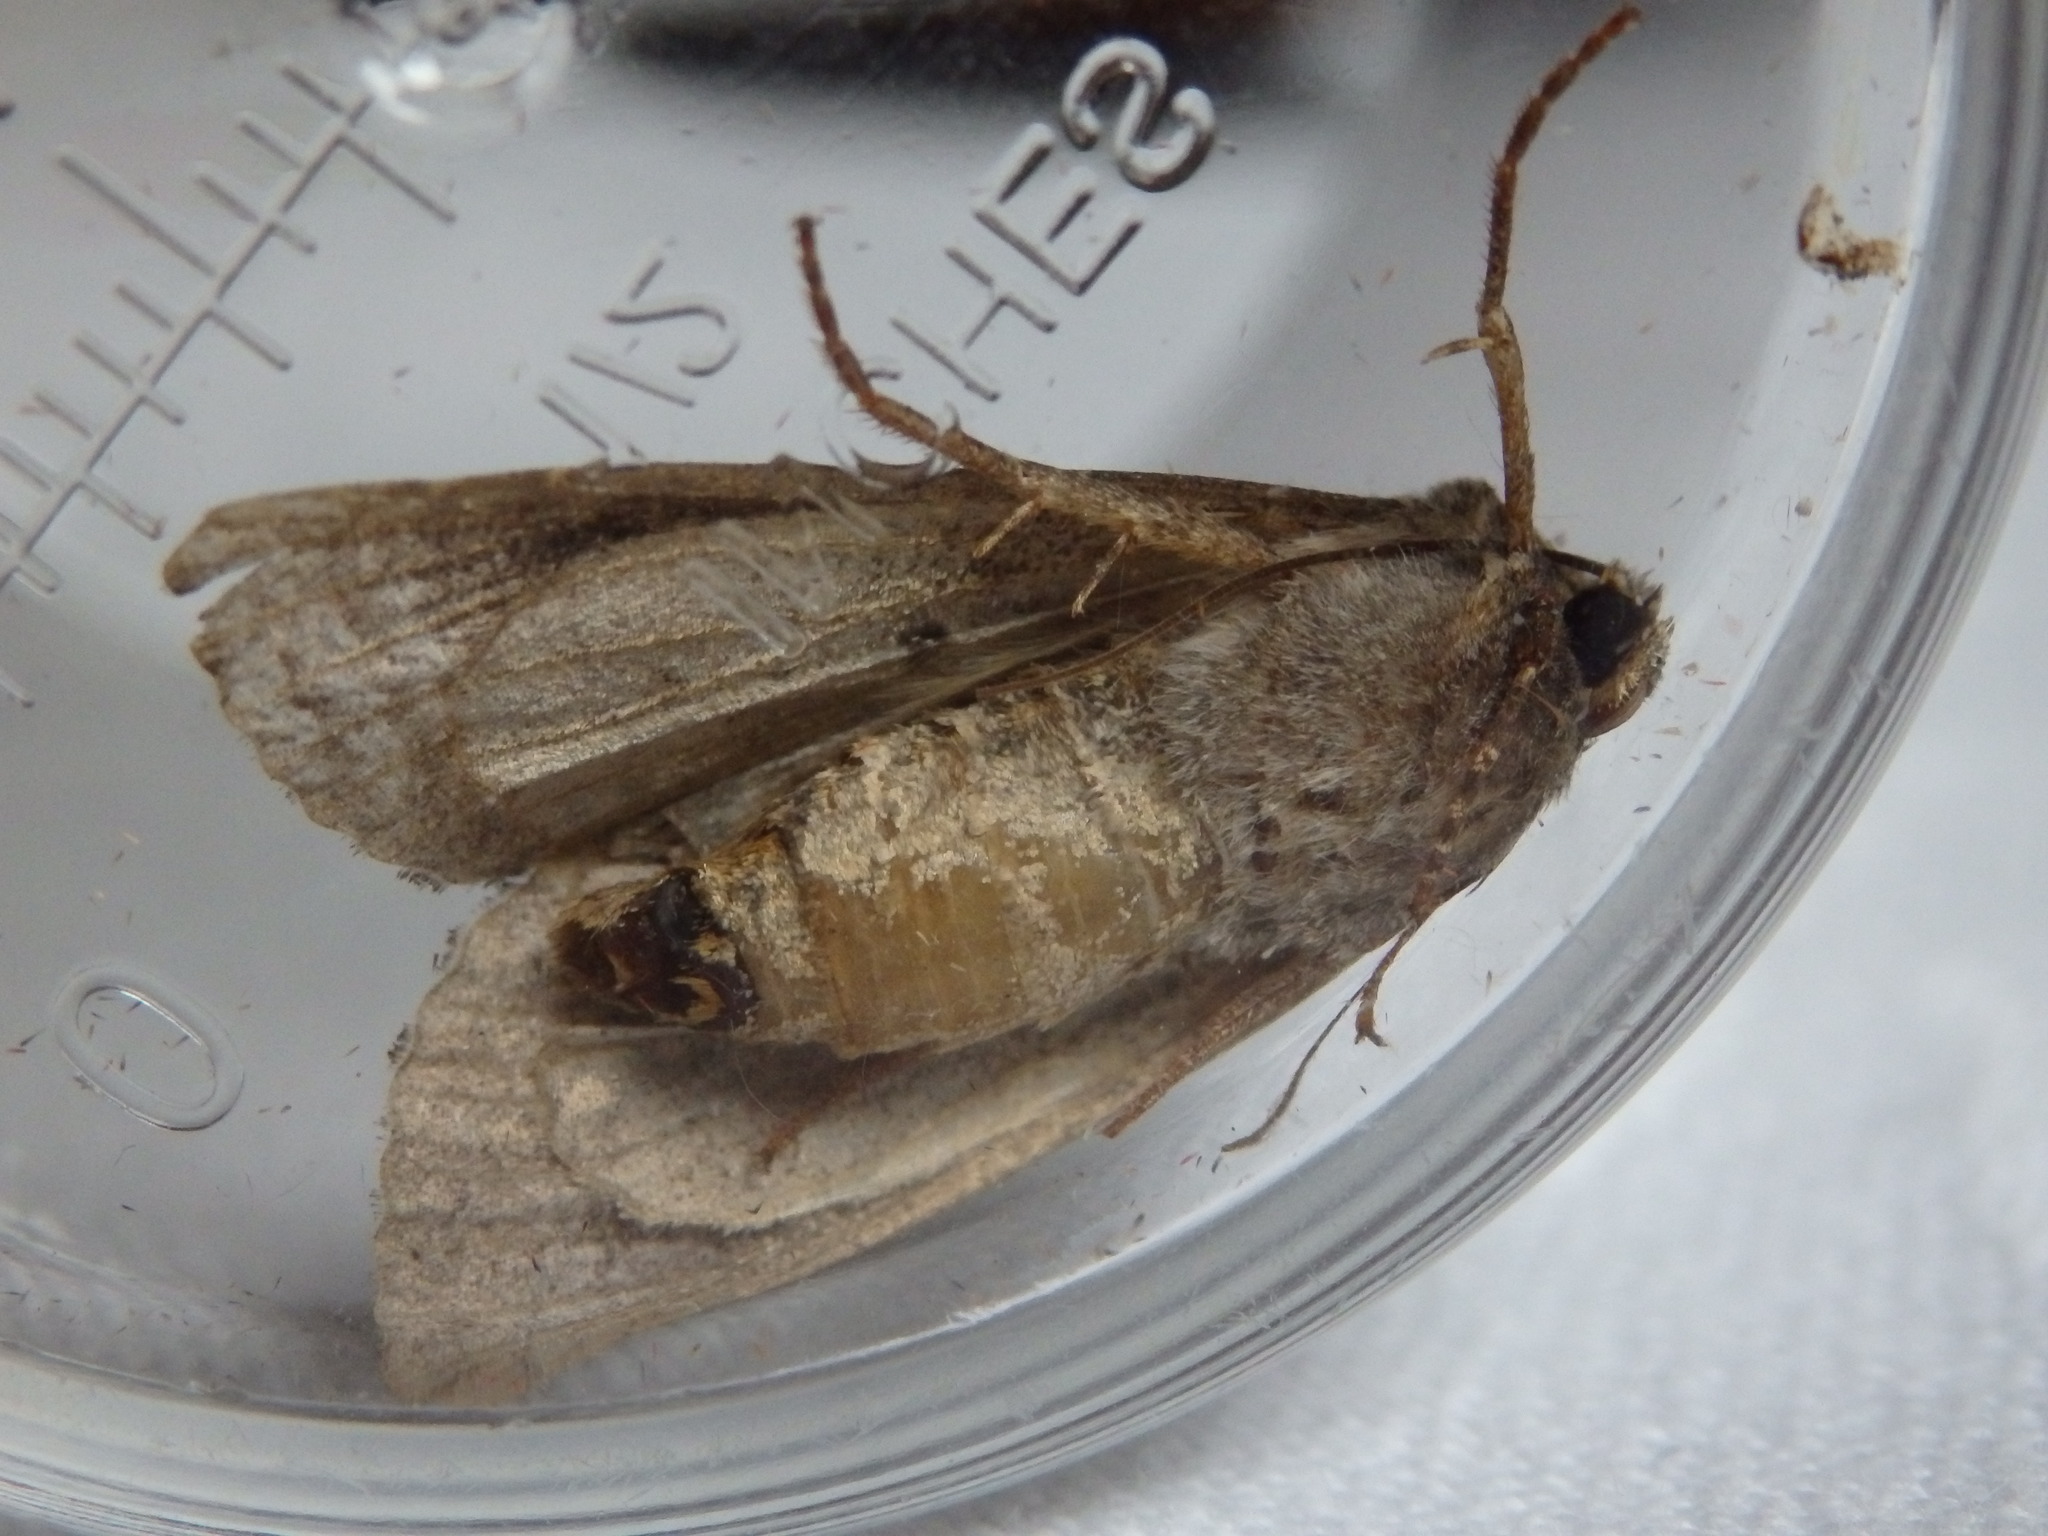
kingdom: Animalia
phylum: Arthropoda
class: Insecta
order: Lepidoptera
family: Noctuidae
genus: Mamestra
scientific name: Mamestra brassicae
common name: Cabbage moth
